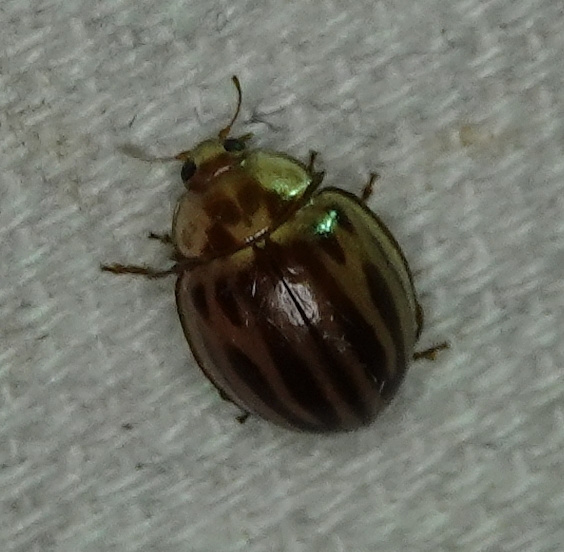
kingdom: Animalia
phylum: Arthropoda
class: Insecta
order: Coleoptera
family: Coccinellidae
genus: Myzia
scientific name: Myzia interrupta
